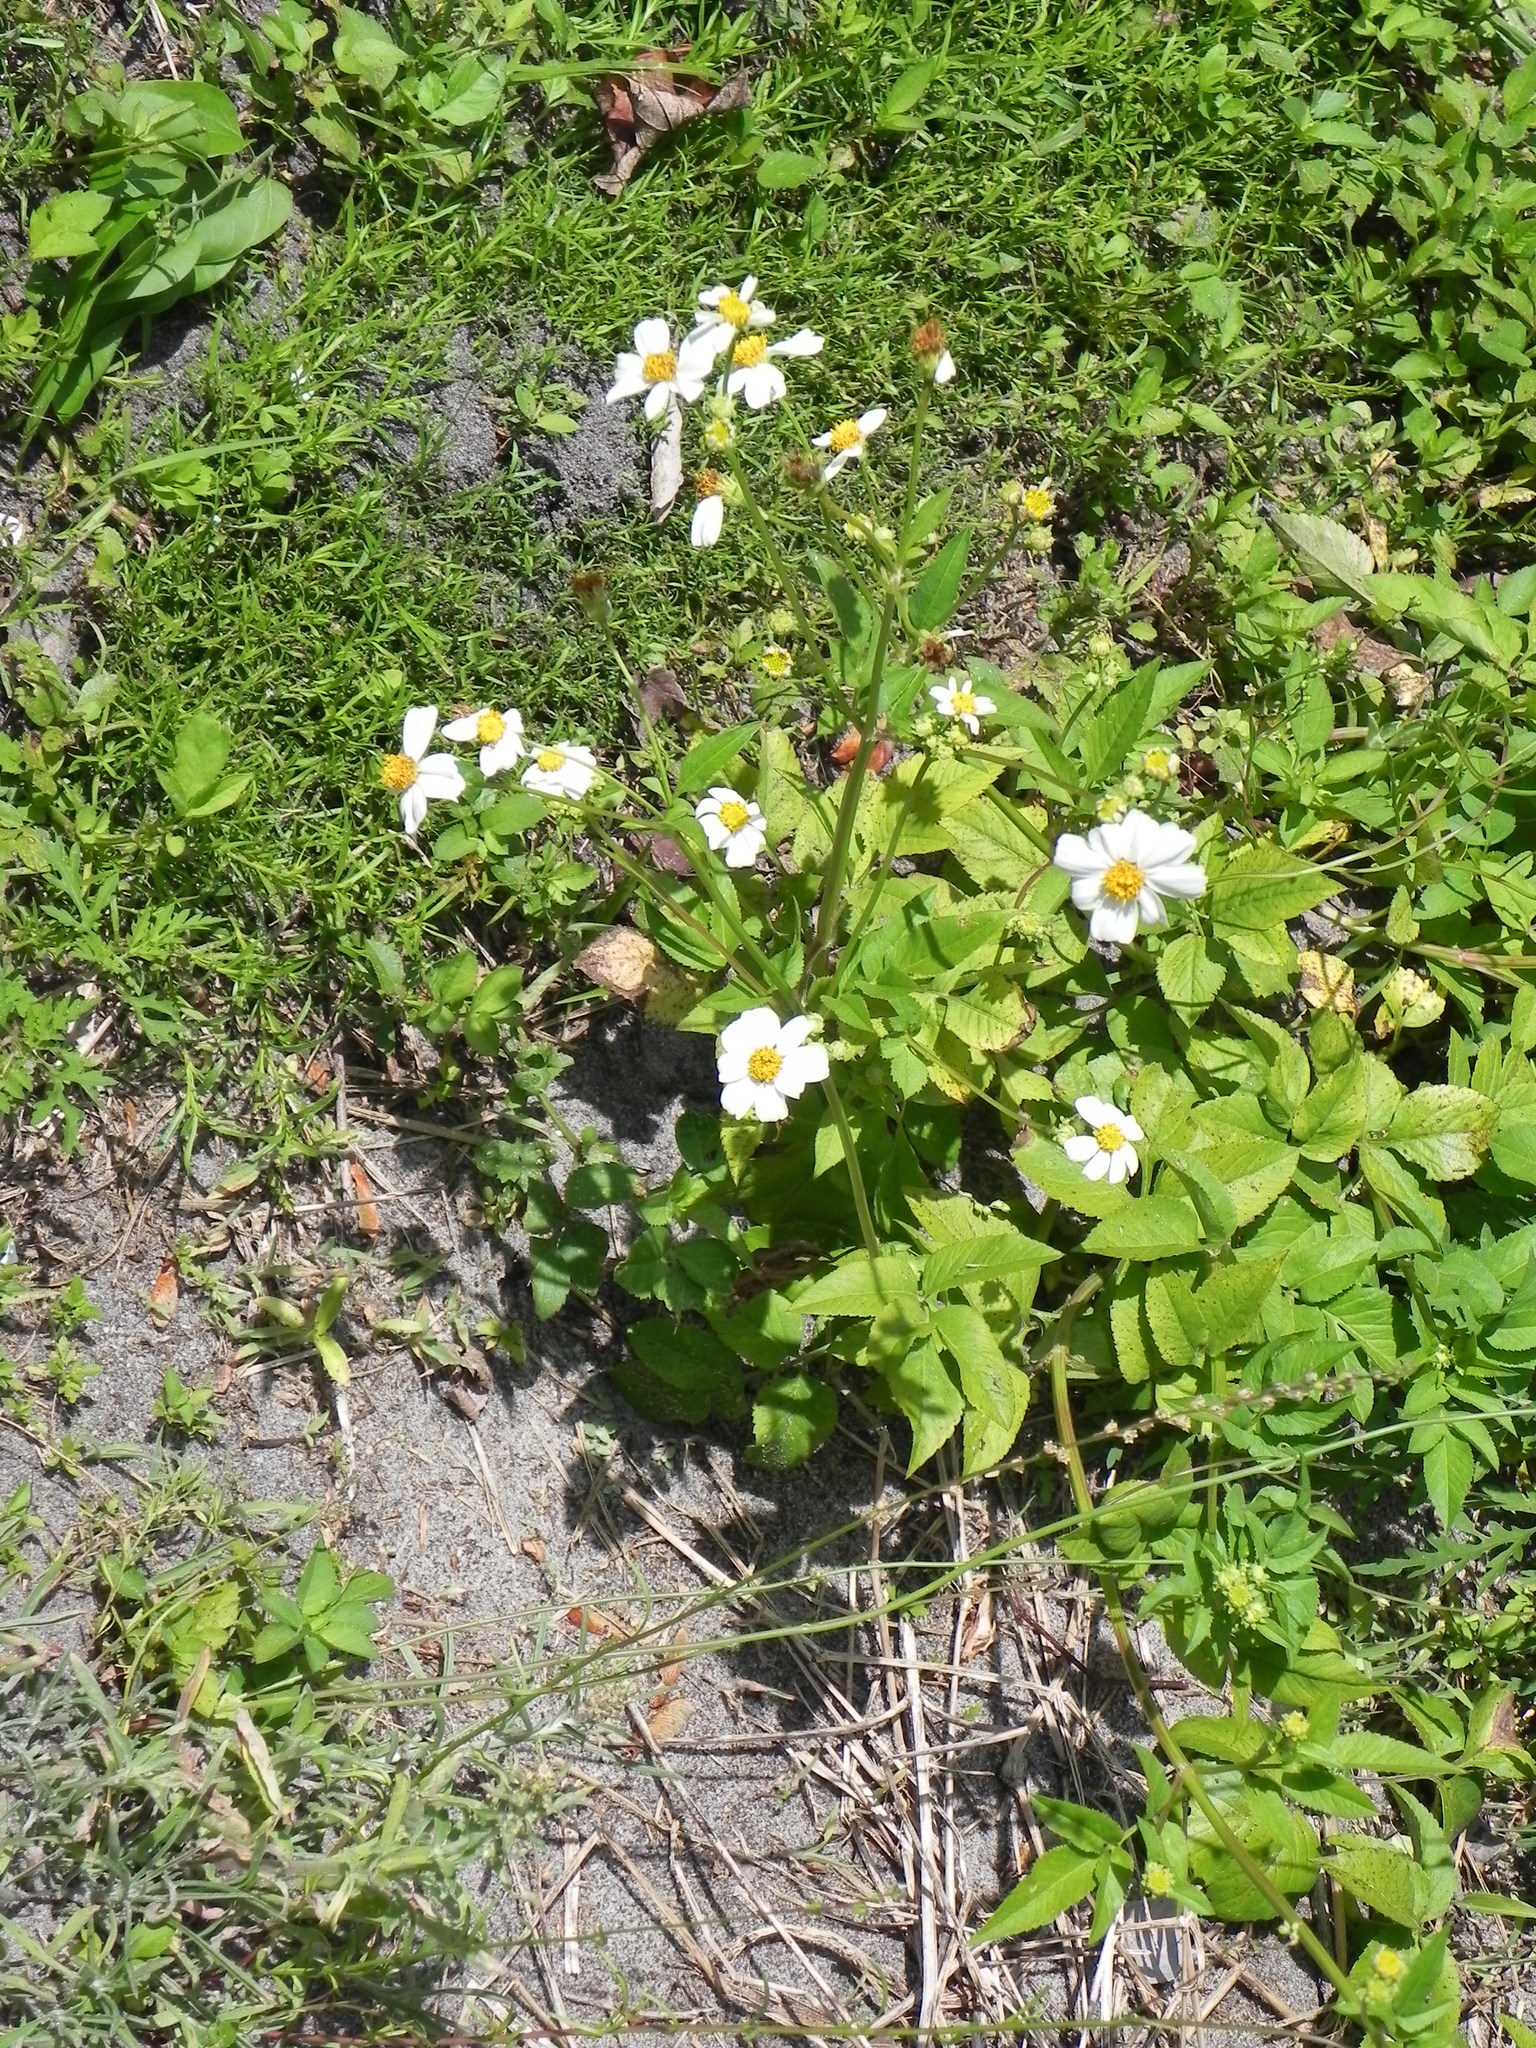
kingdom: Plantae
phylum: Tracheophyta
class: Magnoliopsida
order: Asterales
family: Asteraceae
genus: Bidens
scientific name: Bidens alba
